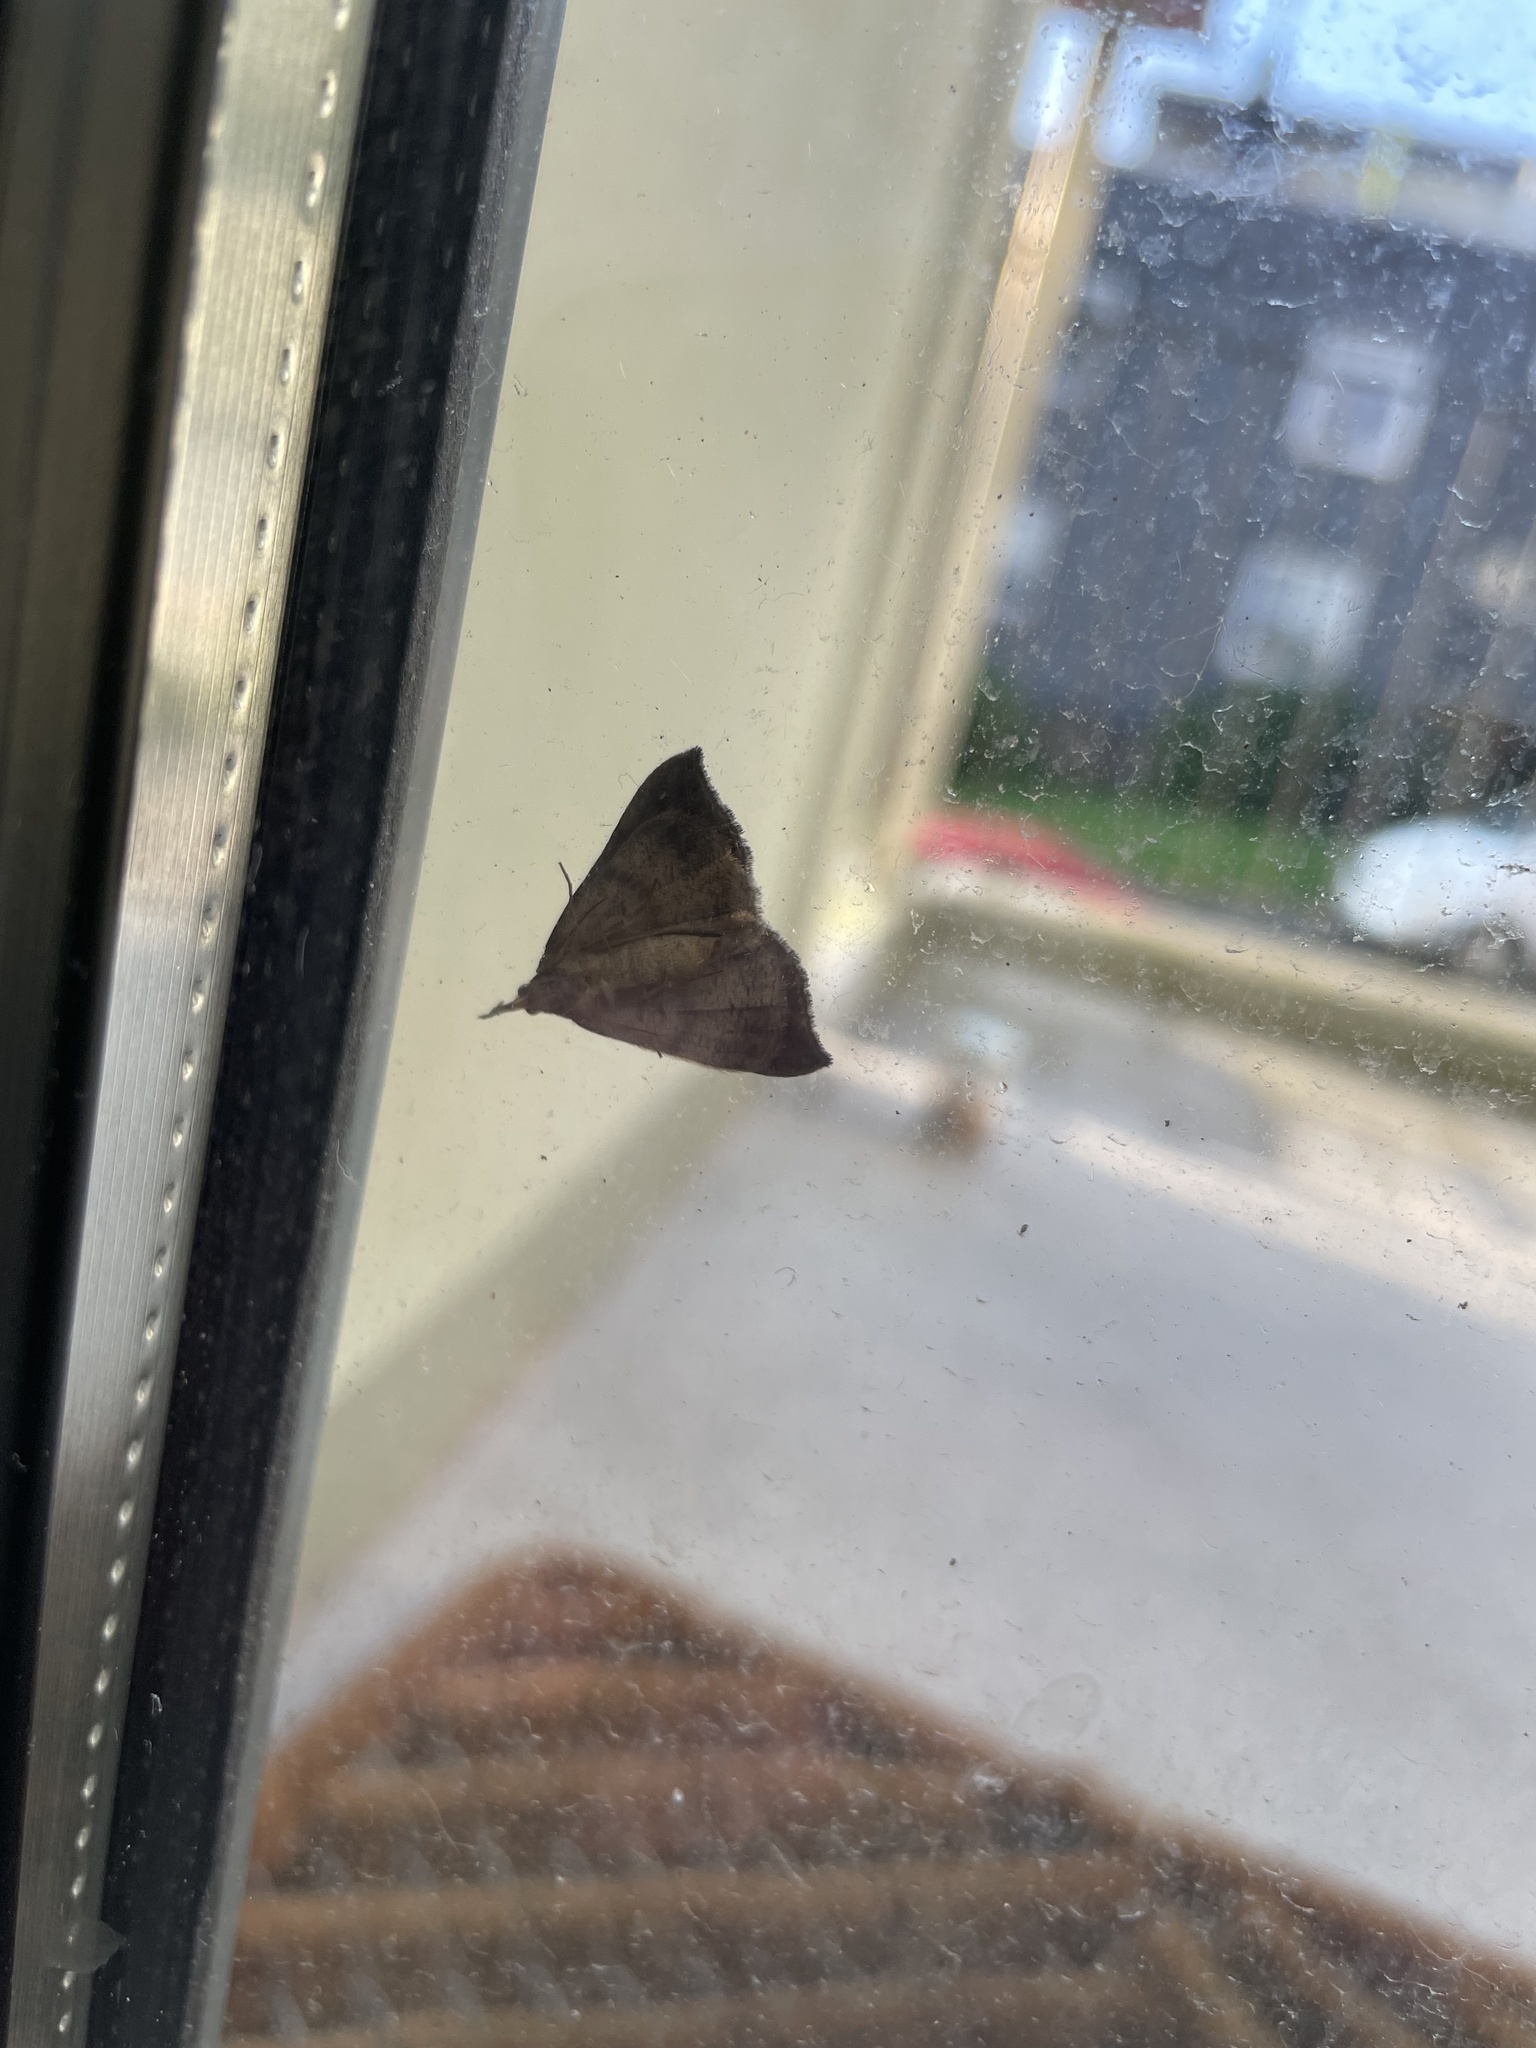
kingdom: Animalia
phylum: Arthropoda
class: Insecta
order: Lepidoptera
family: Erebidae
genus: Hypena
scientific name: Hypena proboscidalis
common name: Snout
